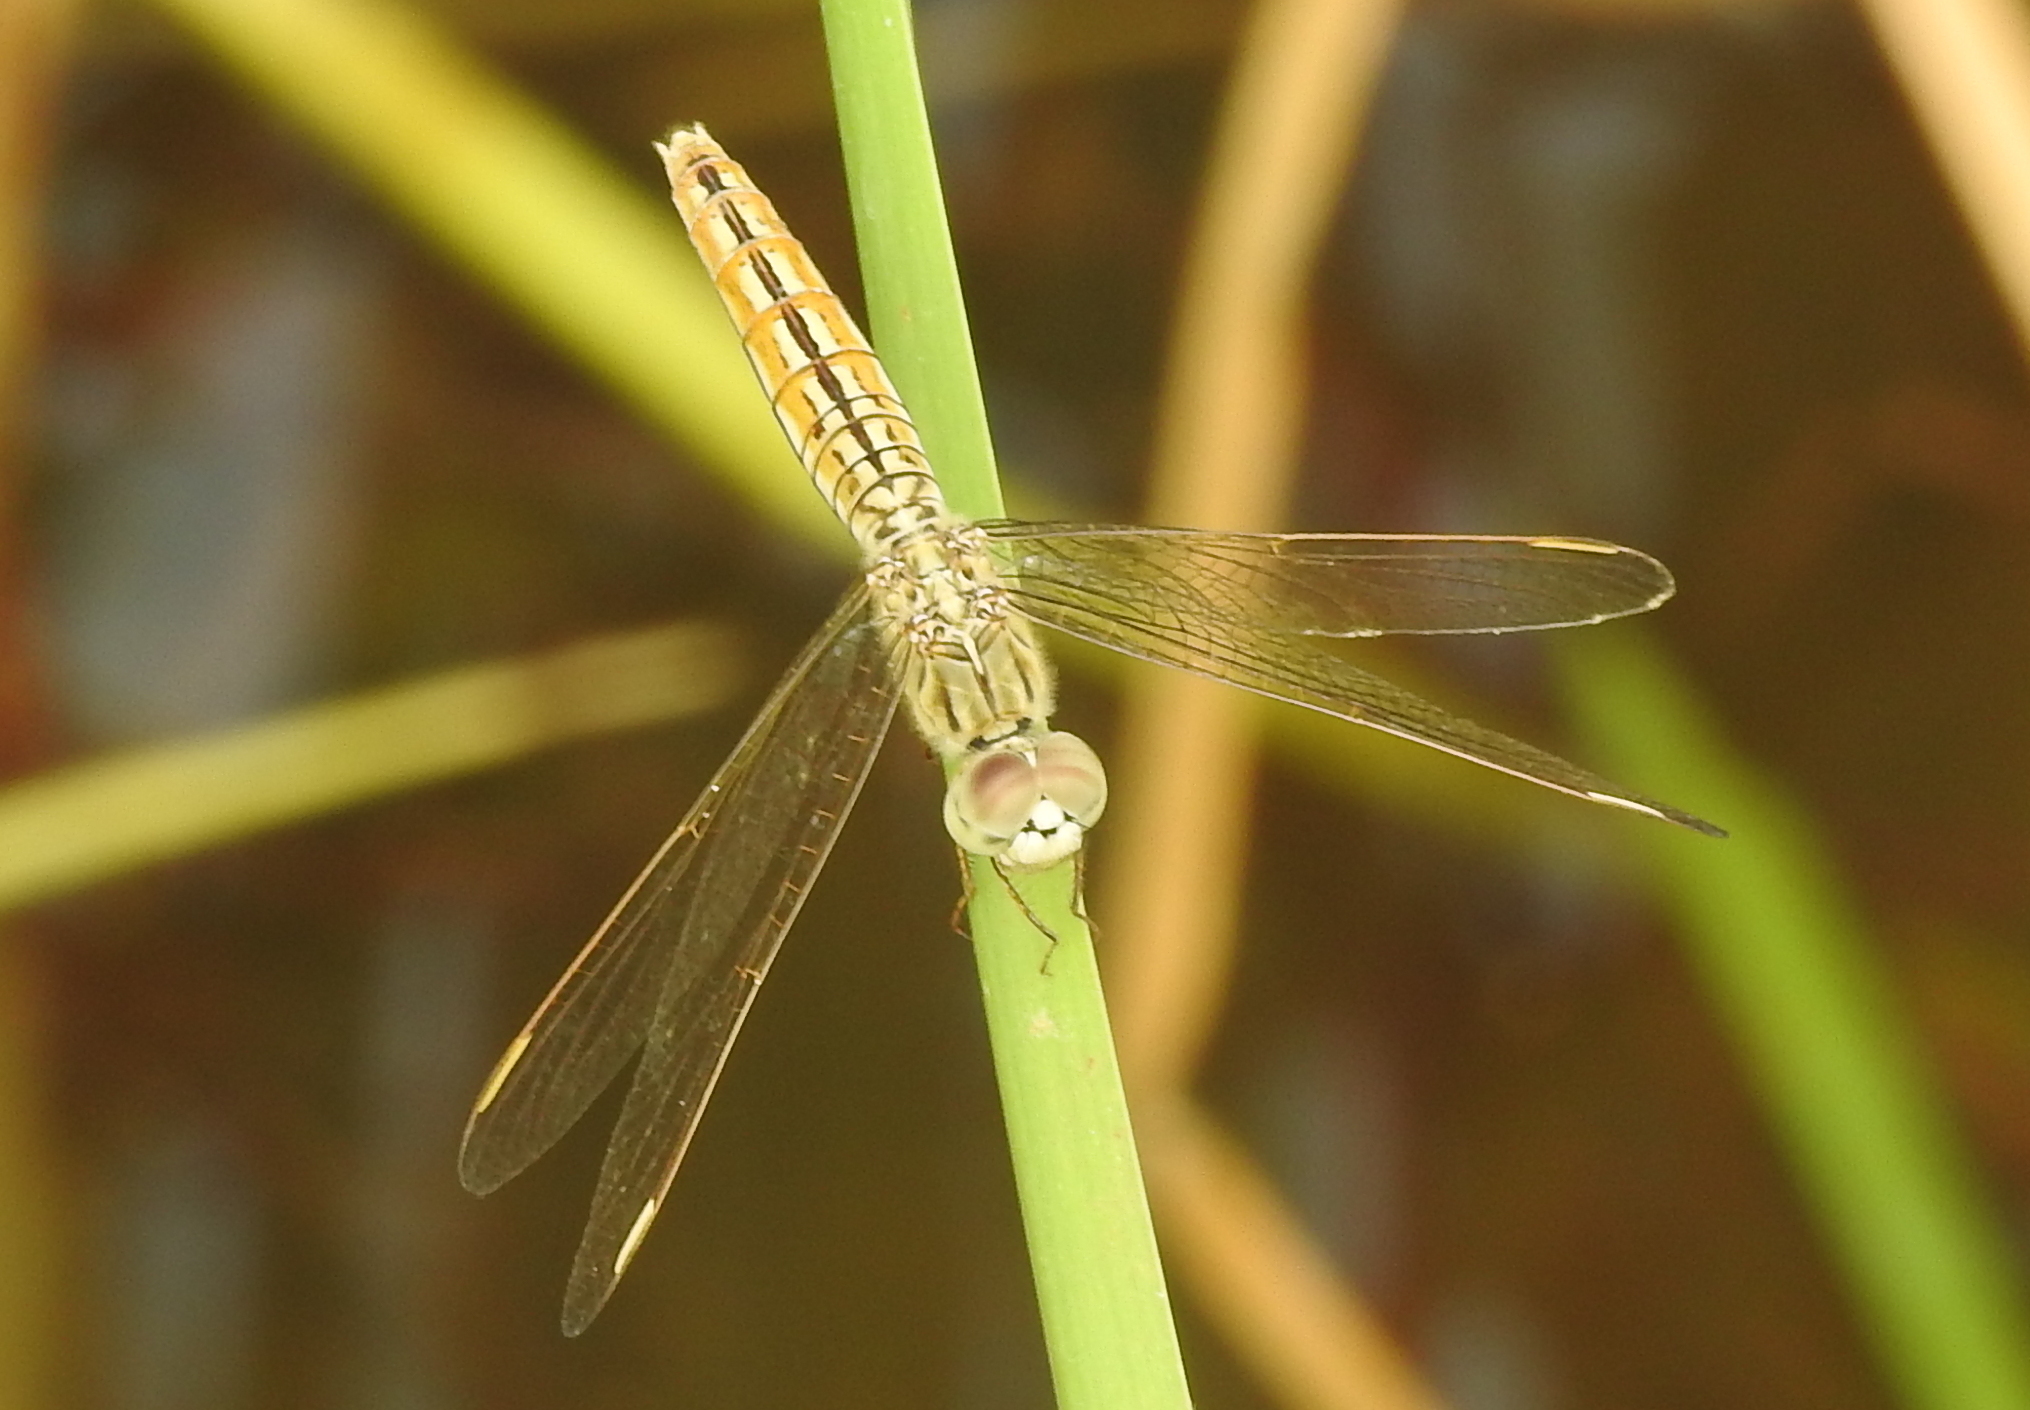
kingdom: Animalia
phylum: Arthropoda
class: Insecta
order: Odonata
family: Libellulidae
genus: Brachythemis
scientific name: Brachythemis contaminata
